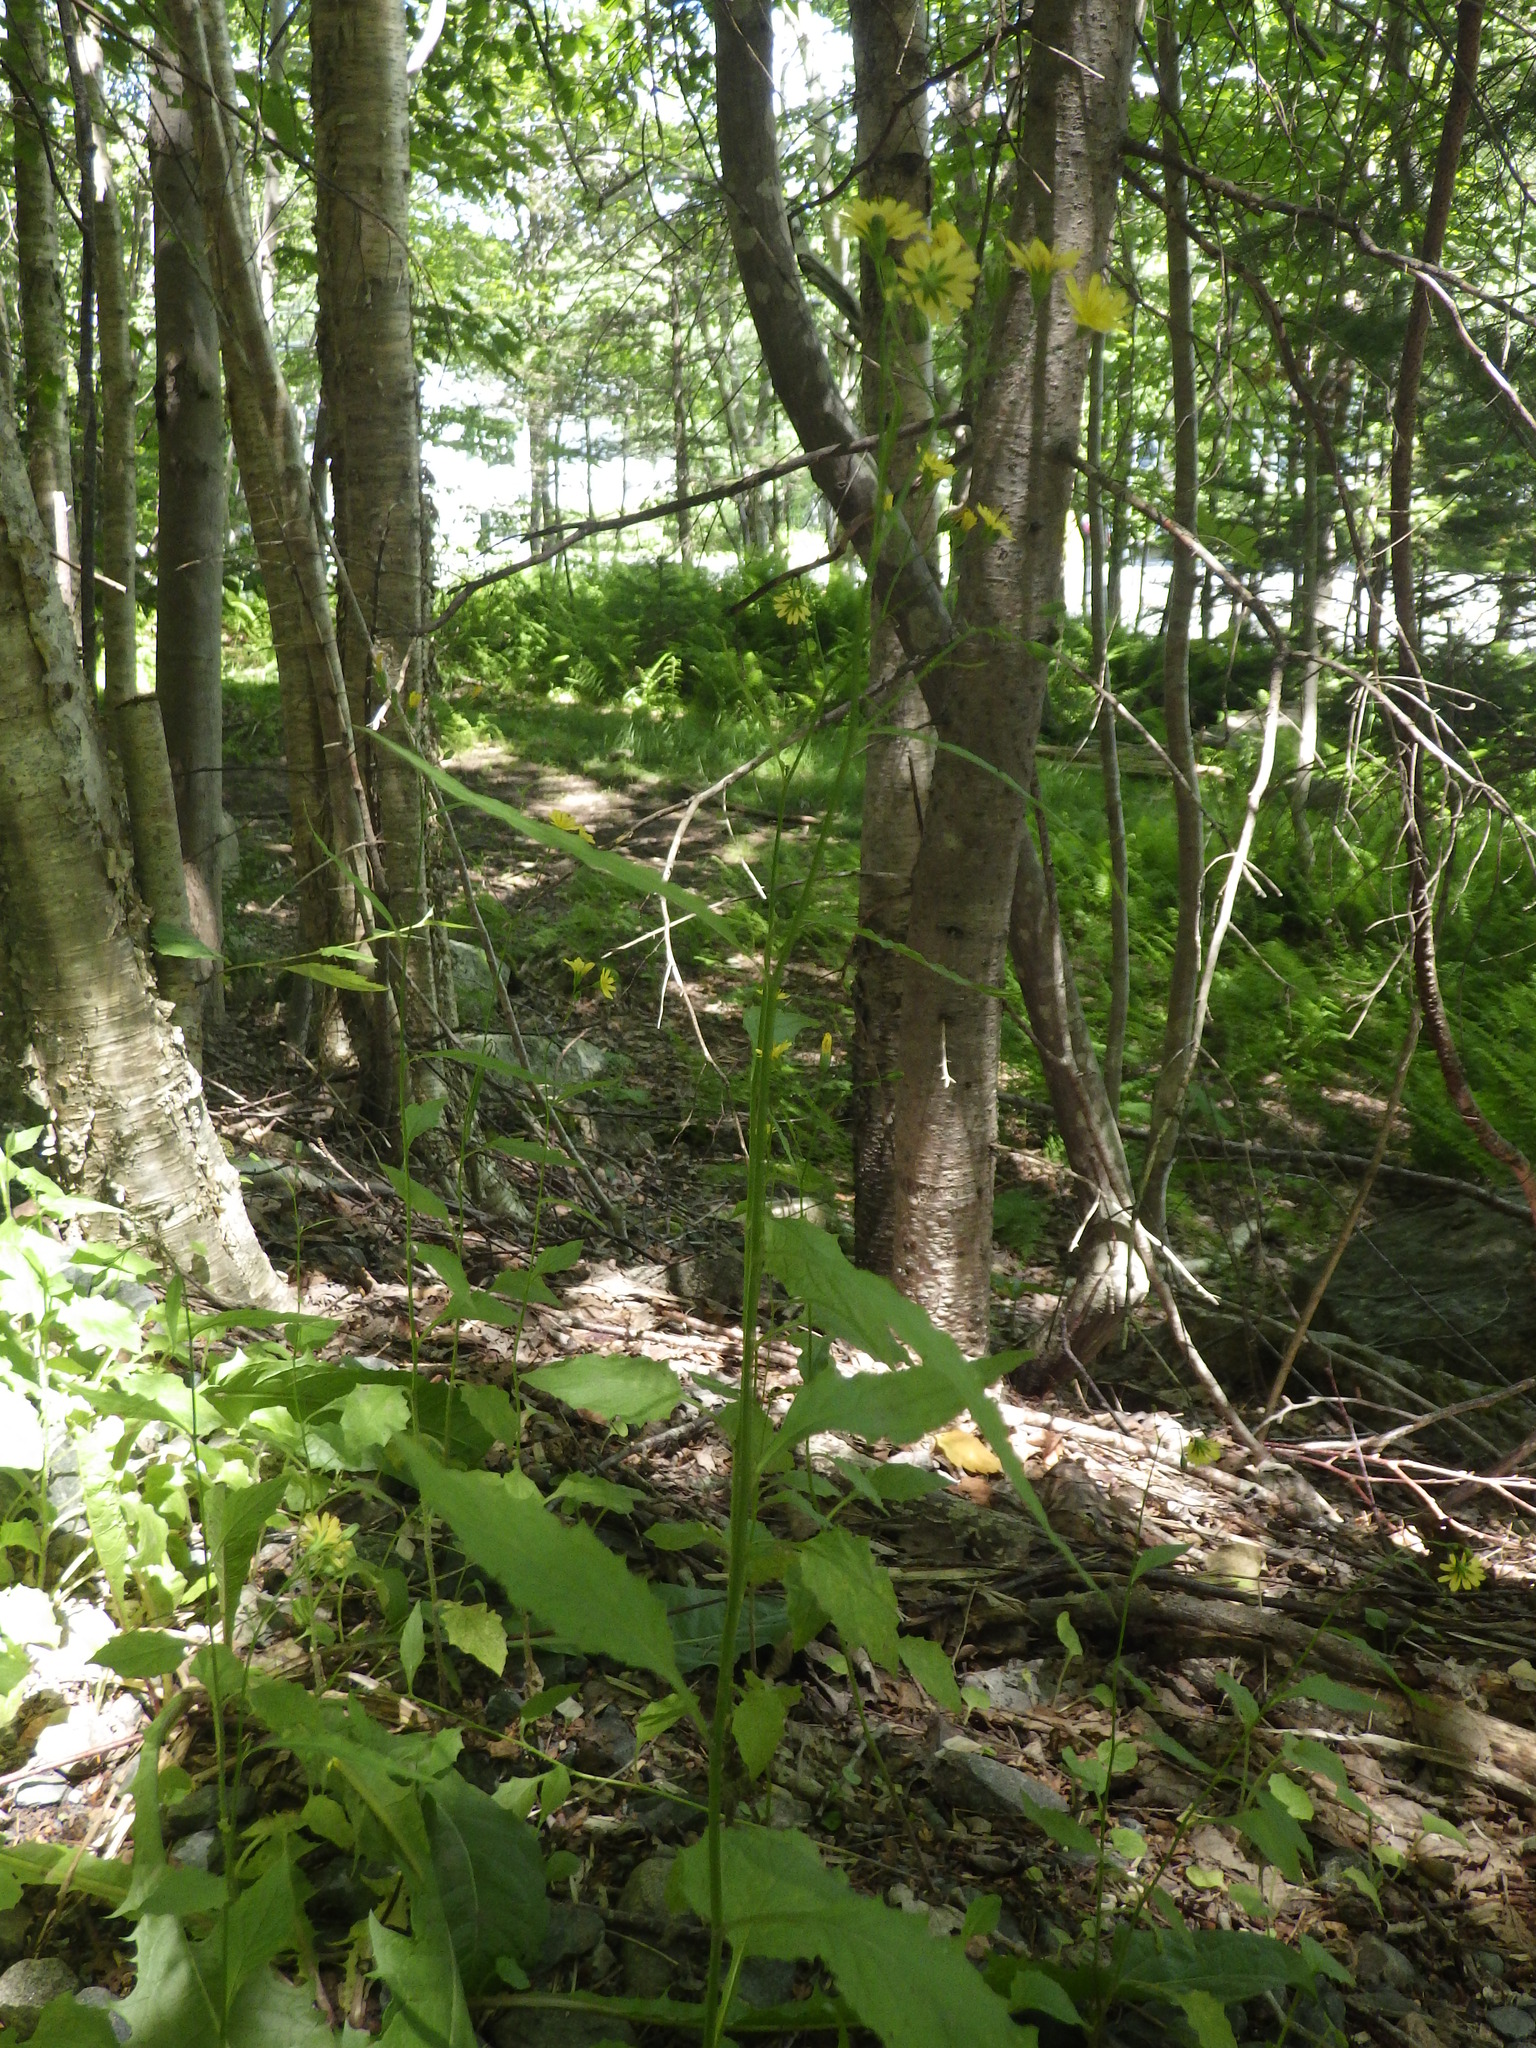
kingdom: Plantae
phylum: Tracheophyta
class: Magnoliopsida
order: Asterales
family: Asteraceae
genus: Lapsana
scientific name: Lapsana communis
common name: Nipplewort
